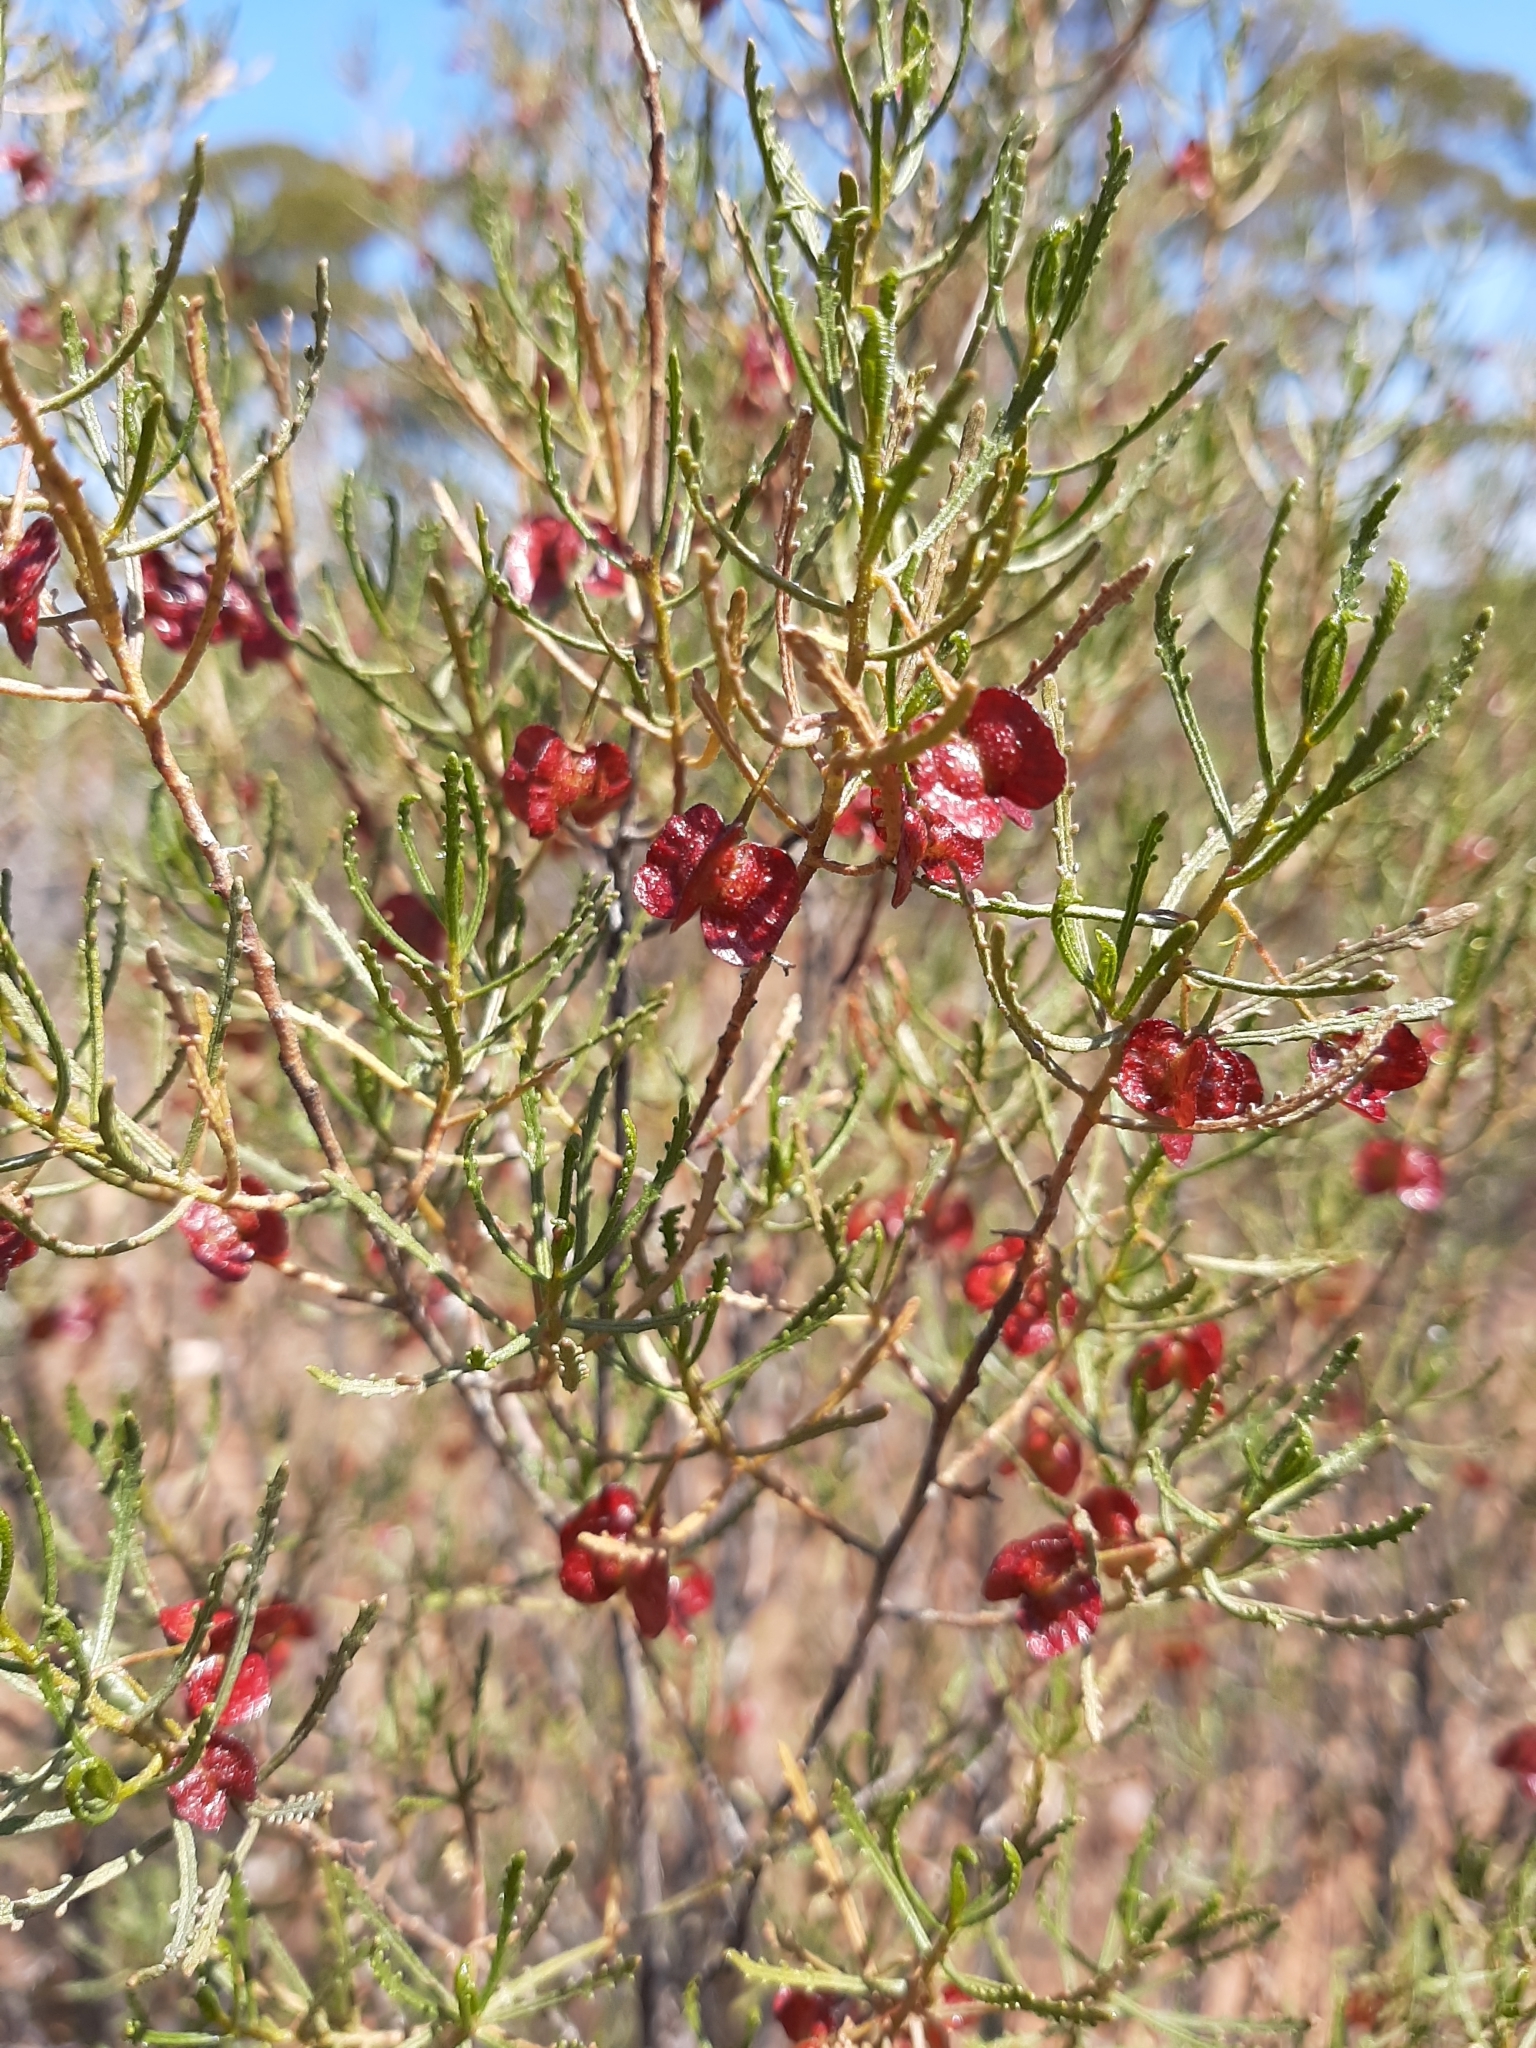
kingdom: Plantae
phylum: Tracheophyta
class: Magnoliopsida
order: Sapindales
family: Sapindaceae
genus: Dodonaea
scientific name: Dodonaea lobulata
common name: Lobe-leaf hopbush
